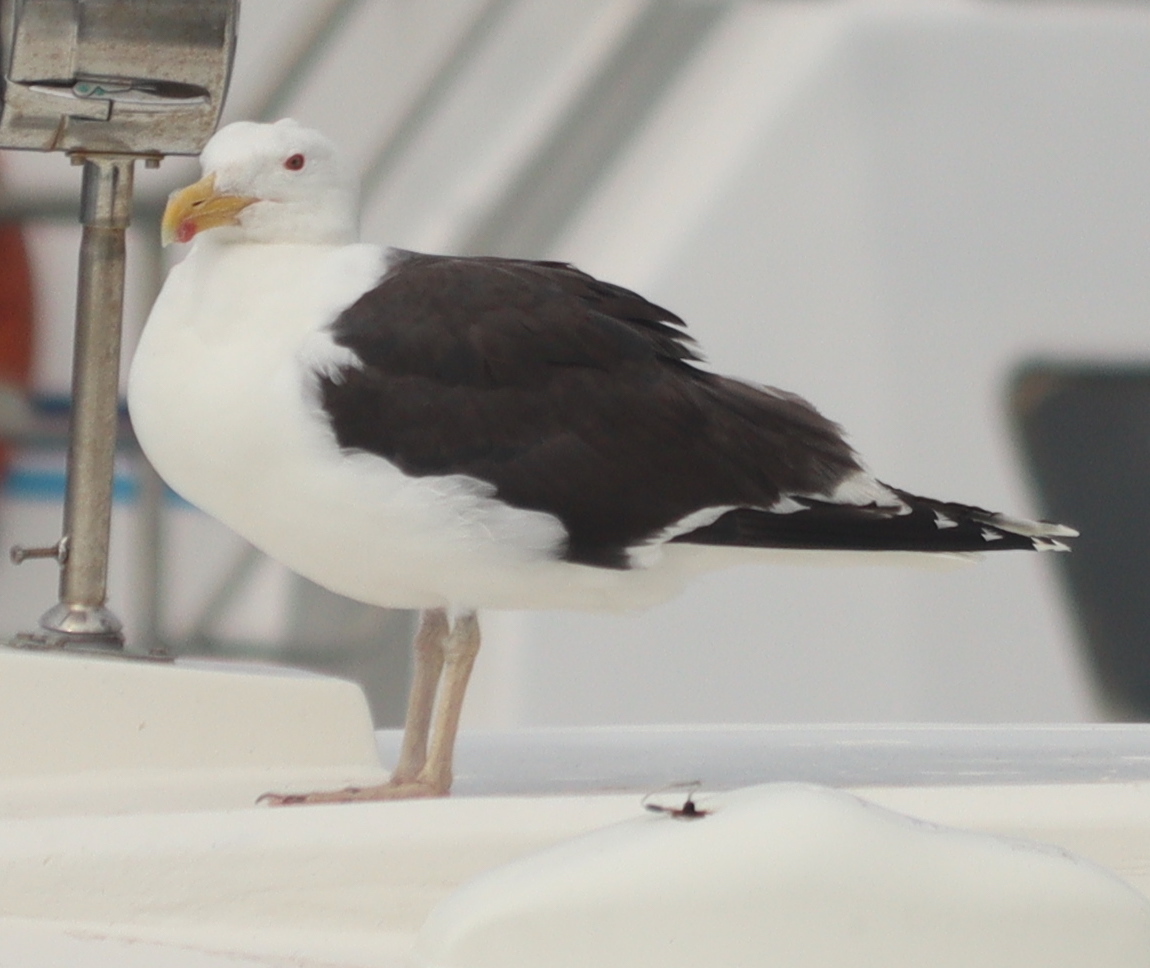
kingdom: Animalia
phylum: Chordata
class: Aves
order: Charadriiformes
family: Laridae
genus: Larus
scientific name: Larus marinus
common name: Great black-backed gull
